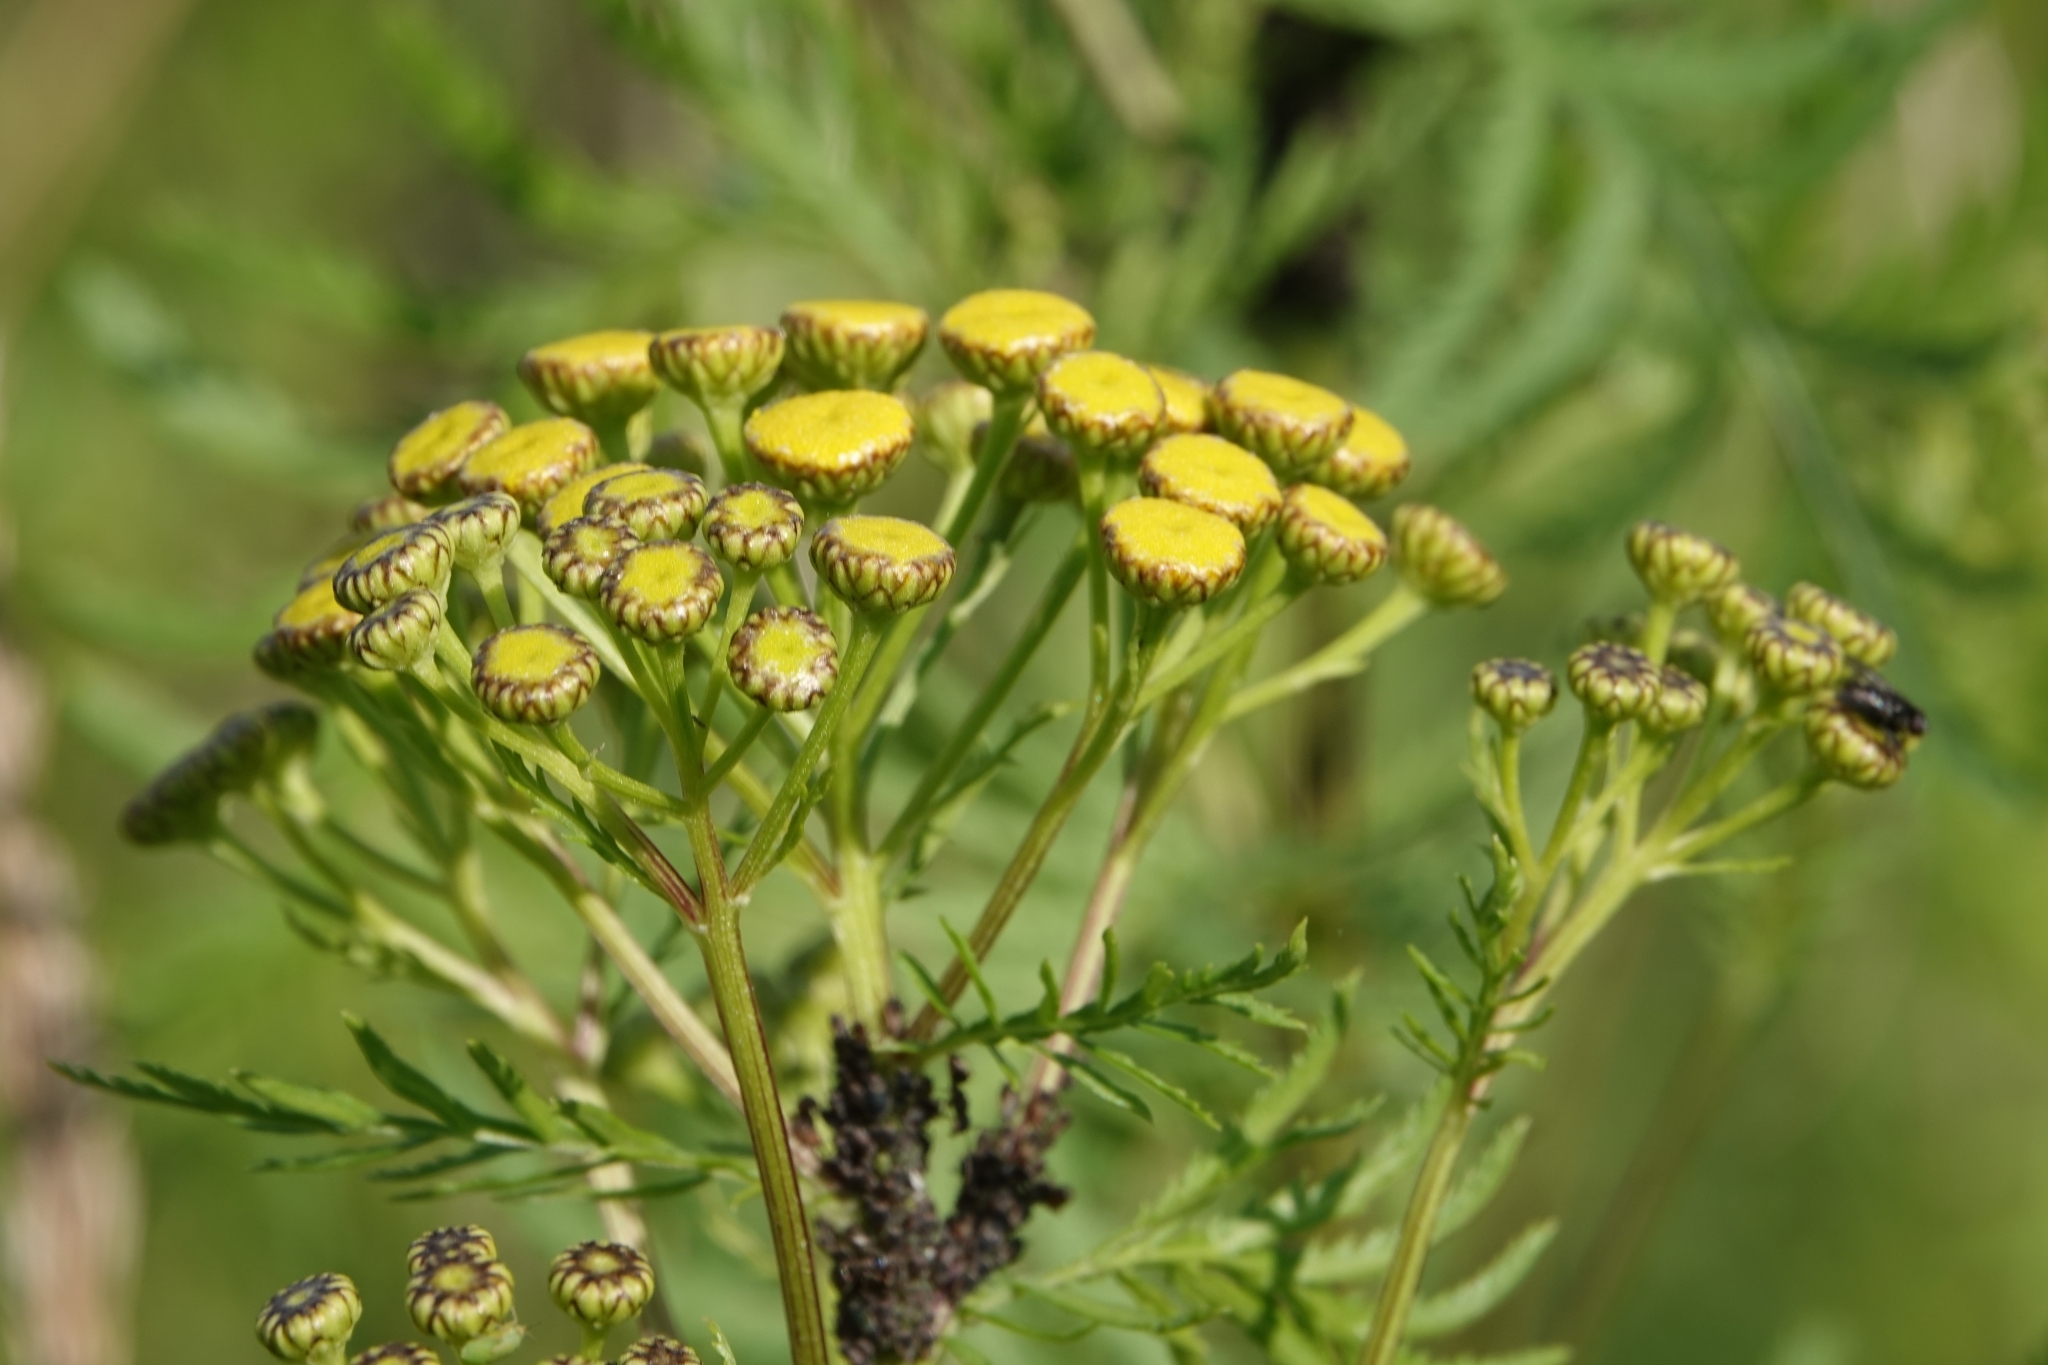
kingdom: Plantae
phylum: Tracheophyta
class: Magnoliopsida
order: Asterales
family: Asteraceae
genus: Tanacetum
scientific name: Tanacetum vulgare
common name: Common tansy
